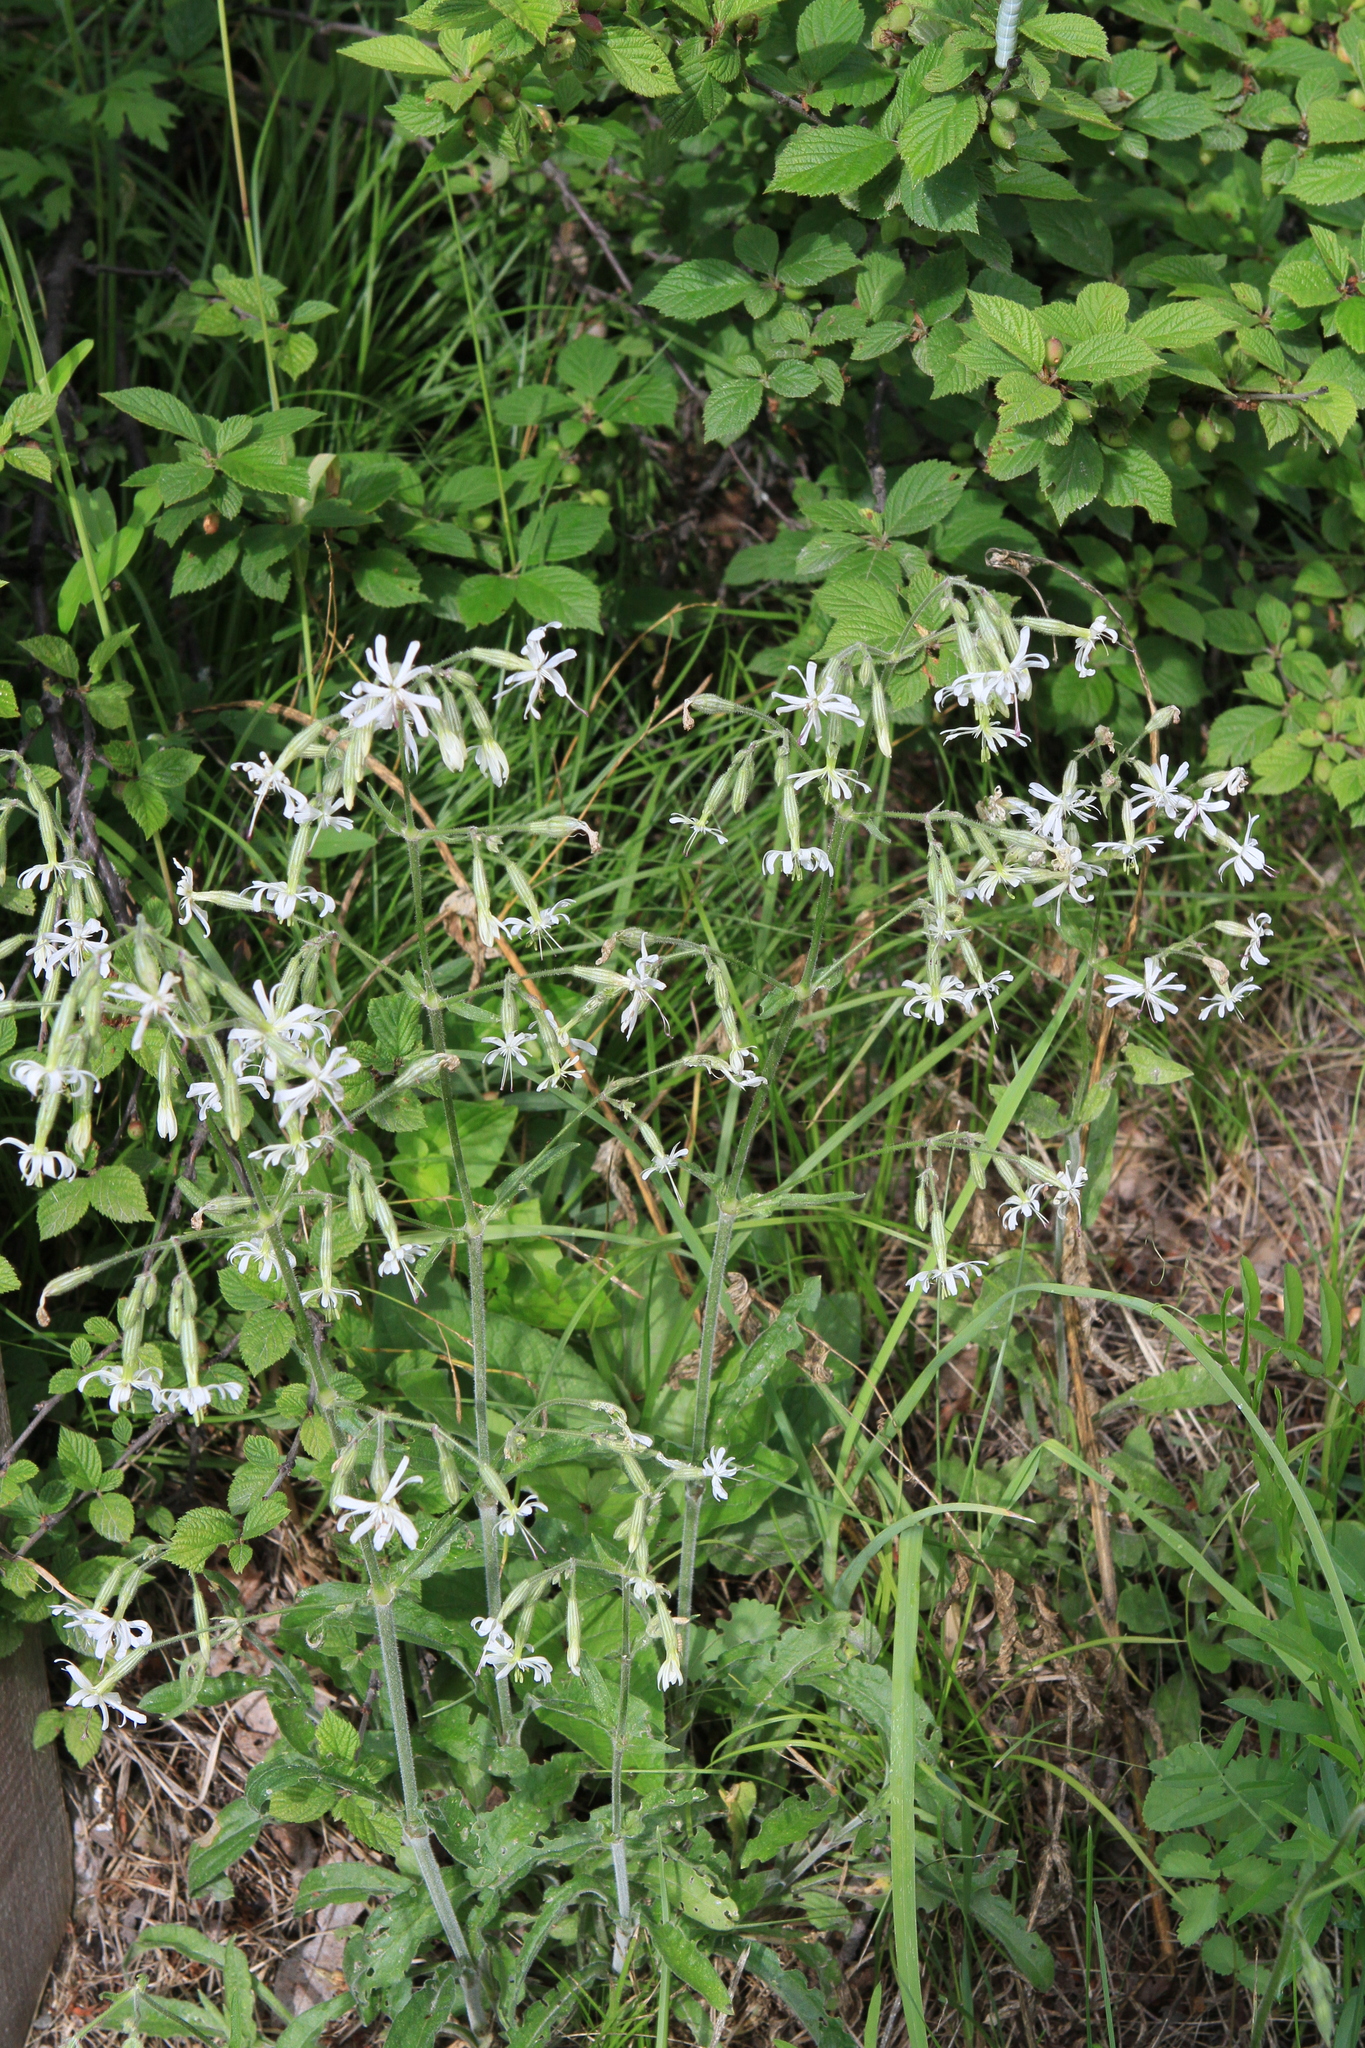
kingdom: Plantae
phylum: Tracheophyta
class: Magnoliopsida
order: Caryophyllales
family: Caryophyllaceae
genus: Silene
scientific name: Silene nutans
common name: Nottingham catchfly
